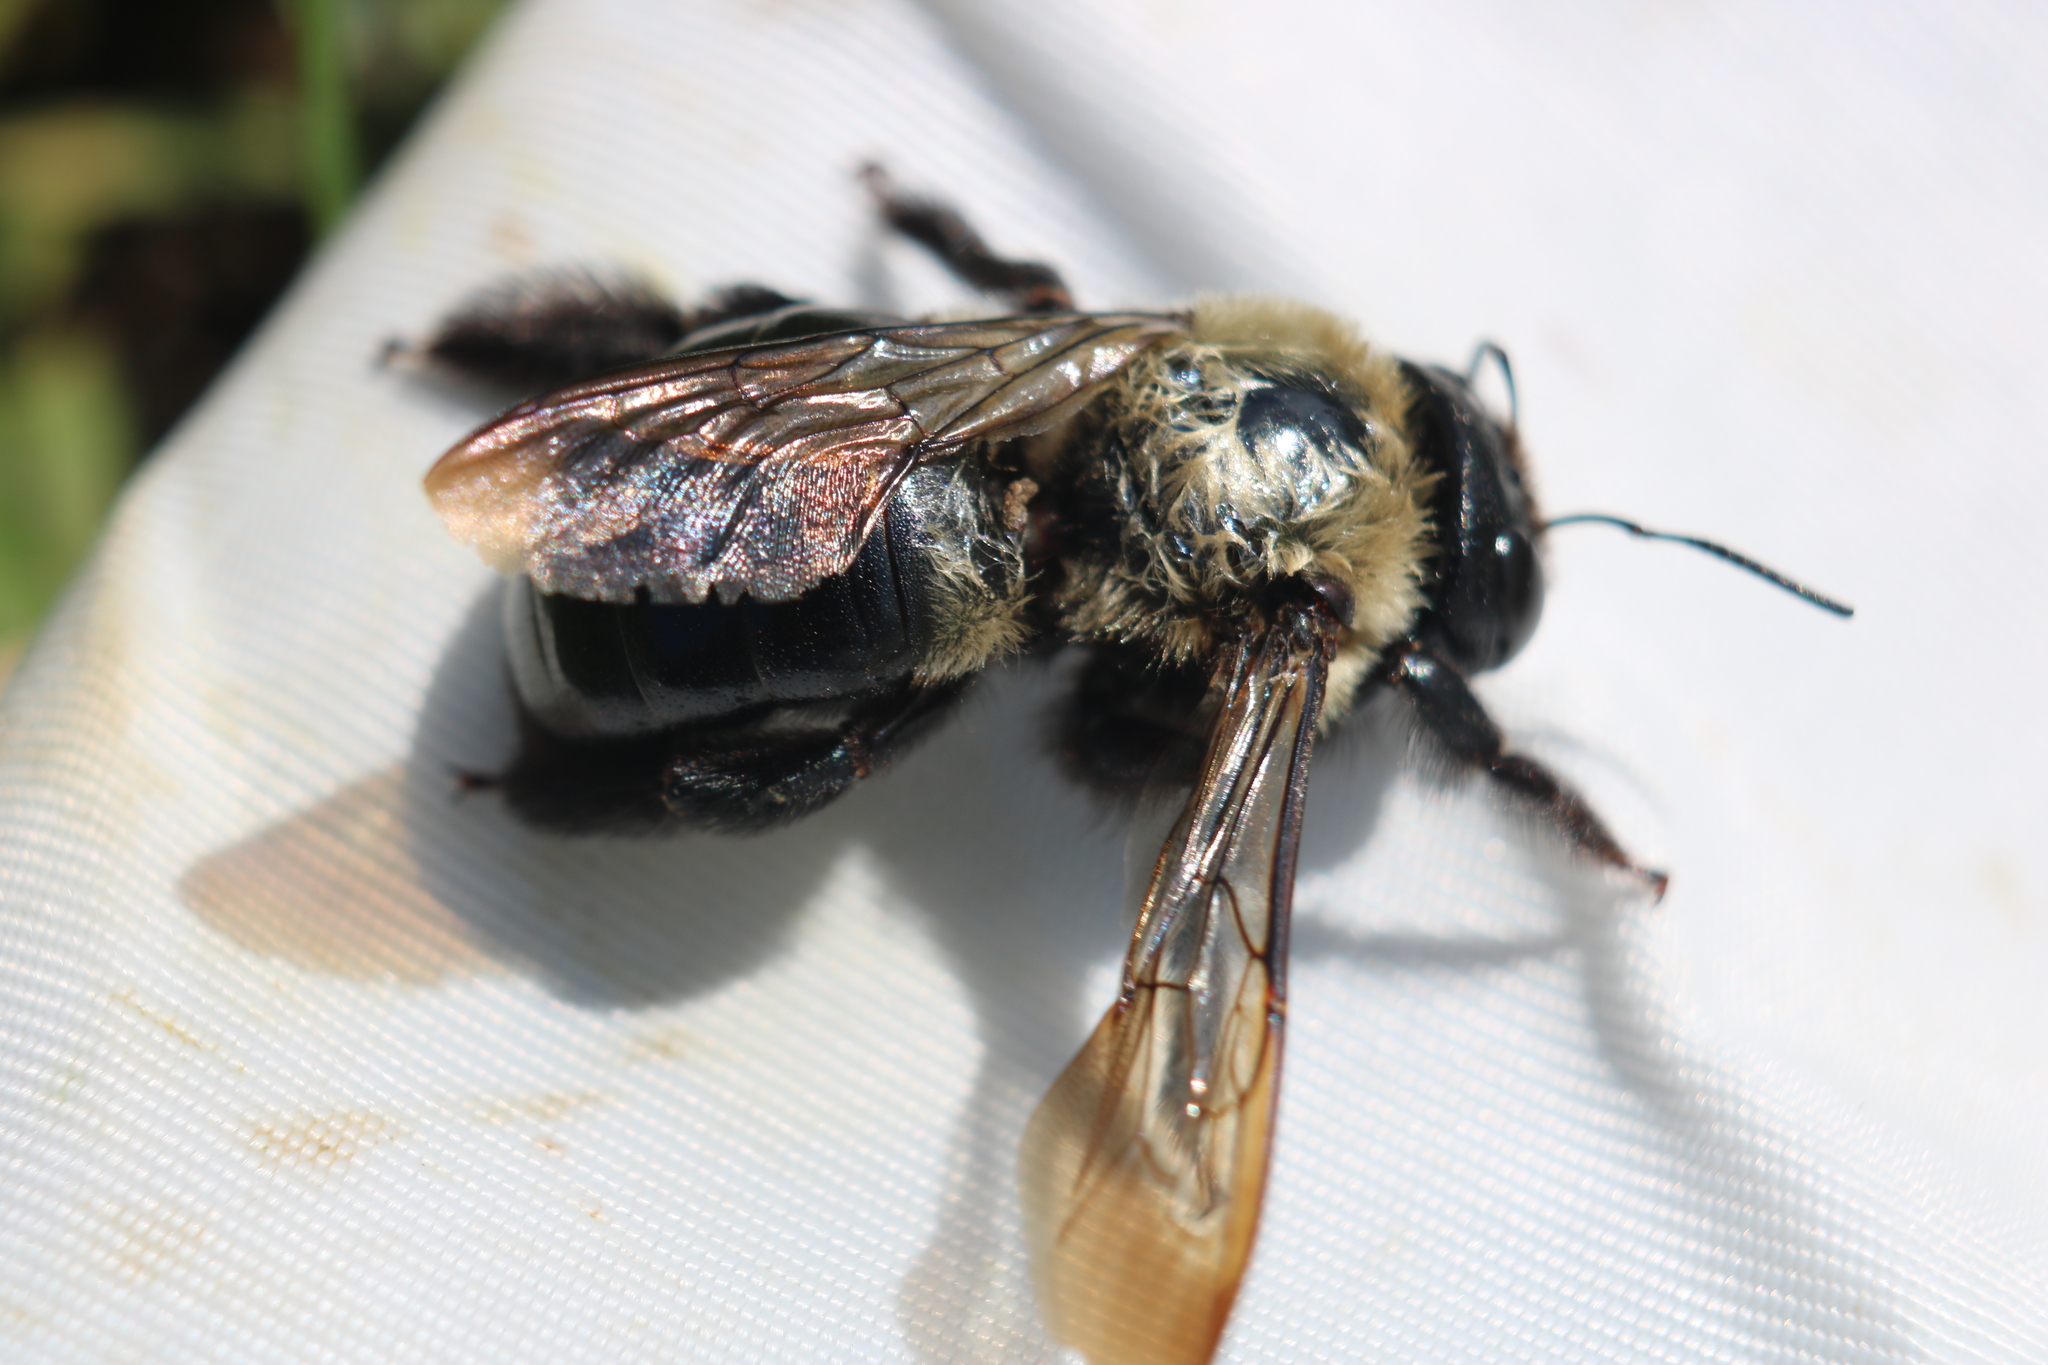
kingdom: Animalia
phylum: Arthropoda
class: Insecta
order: Hymenoptera
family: Apidae
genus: Xylocopa
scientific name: Xylocopa virginica
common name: Carpenter bee
